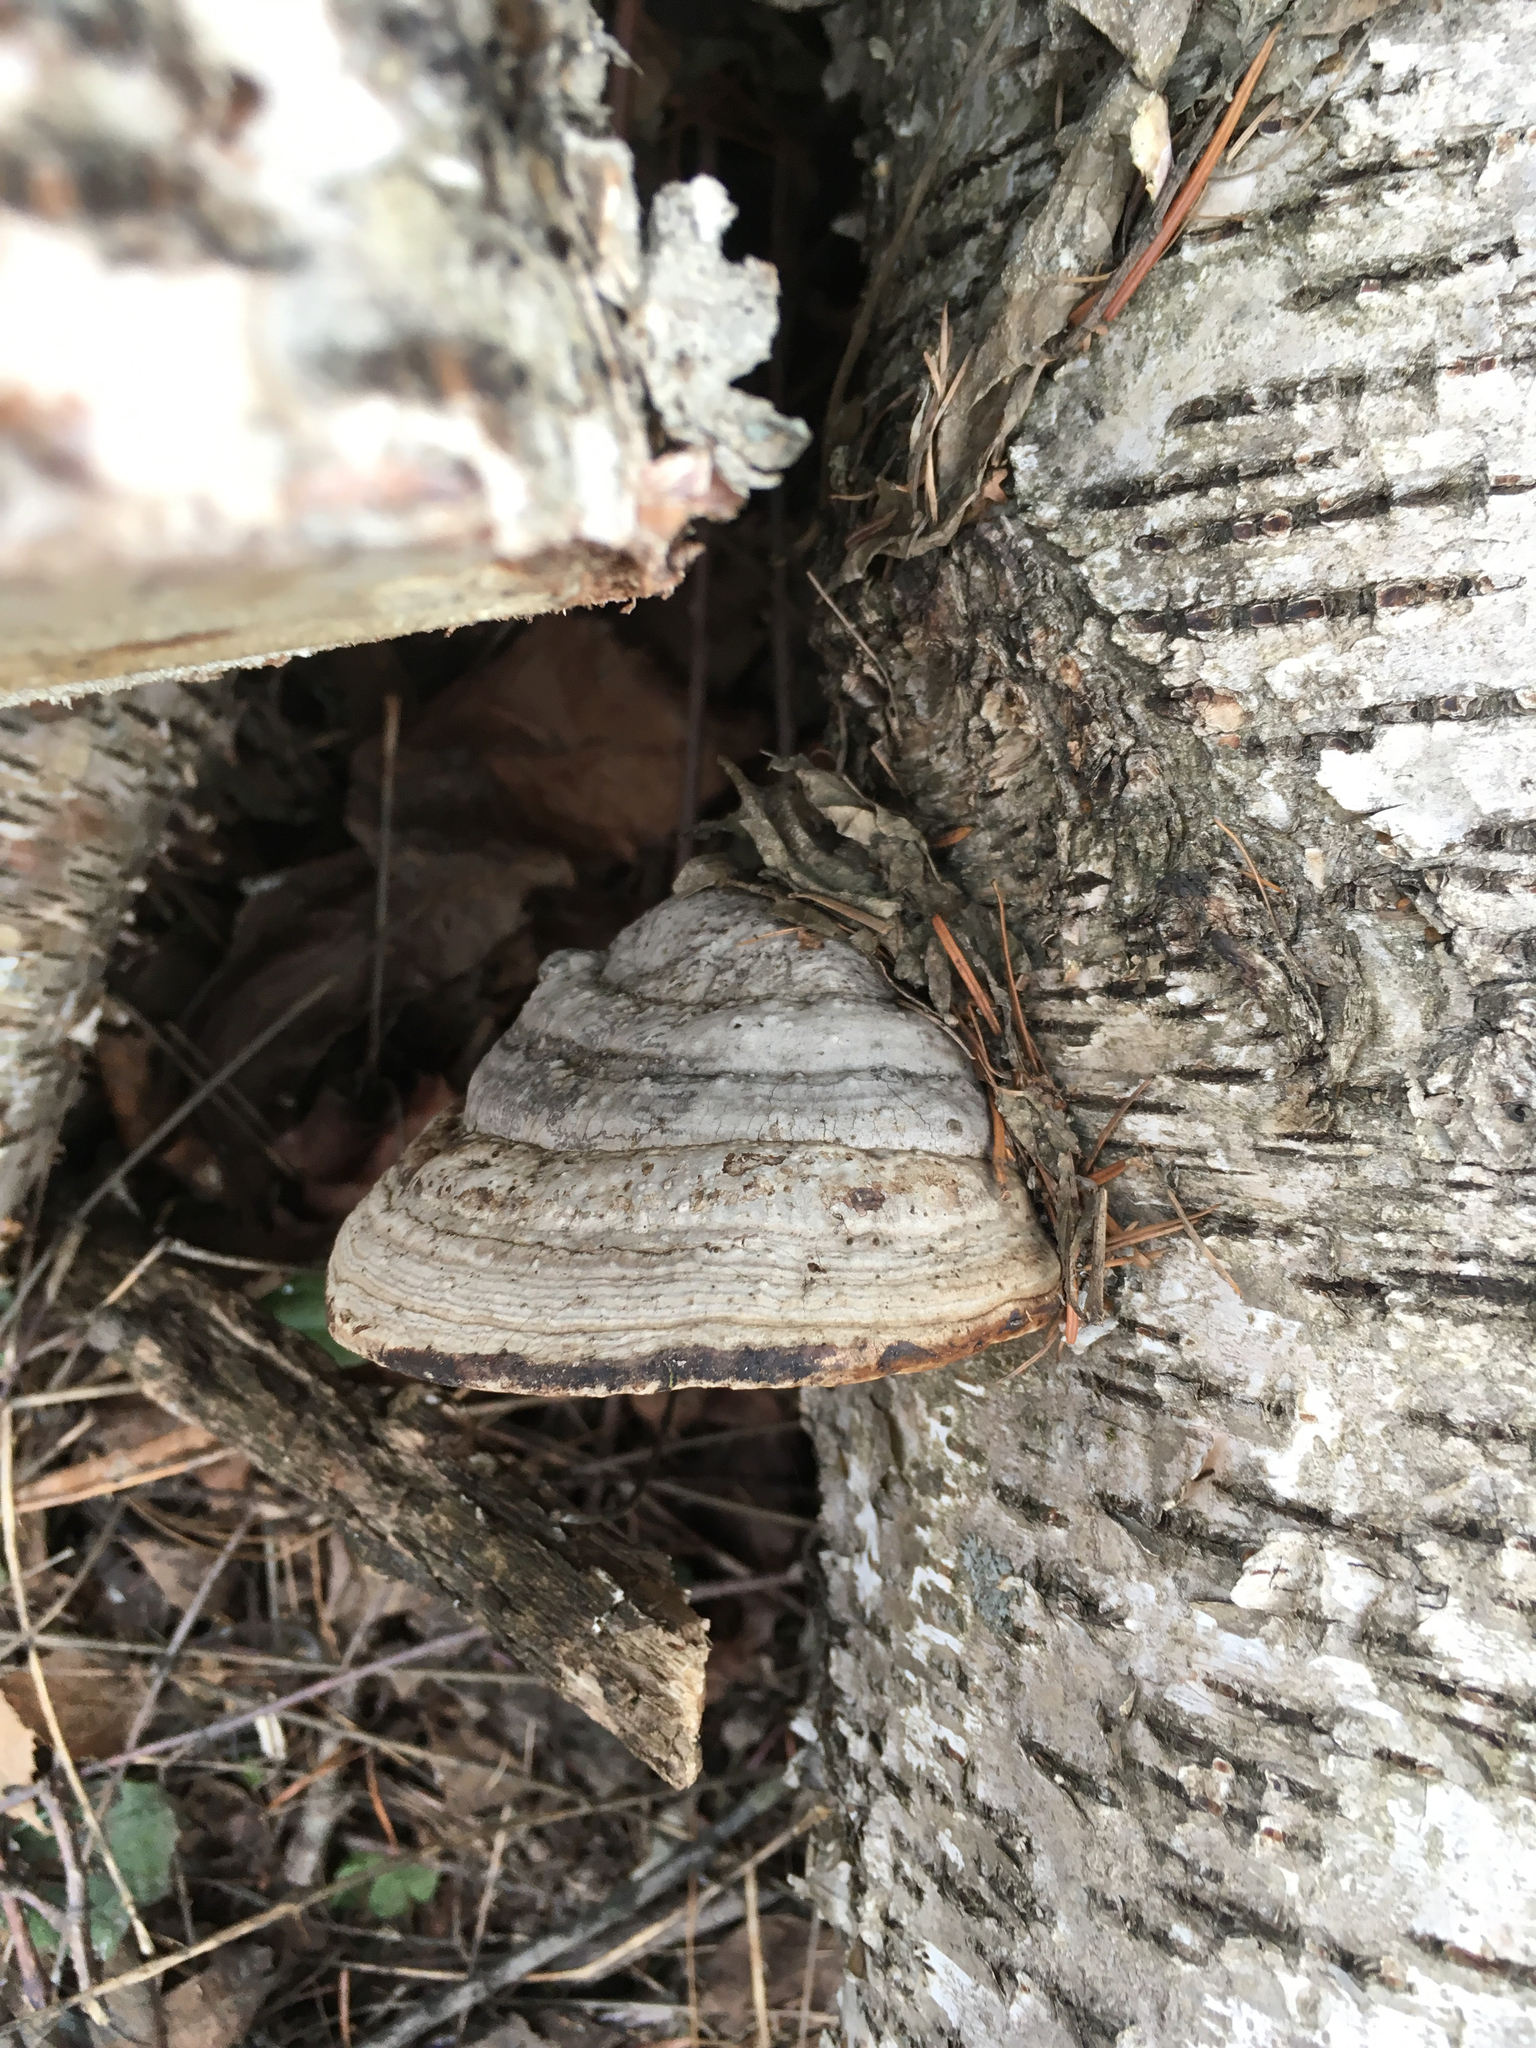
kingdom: Fungi
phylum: Basidiomycota
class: Agaricomycetes
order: Polyporales
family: Polyporaceae
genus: Fomes
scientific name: Fomes fomentarius
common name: Hoof fungus
